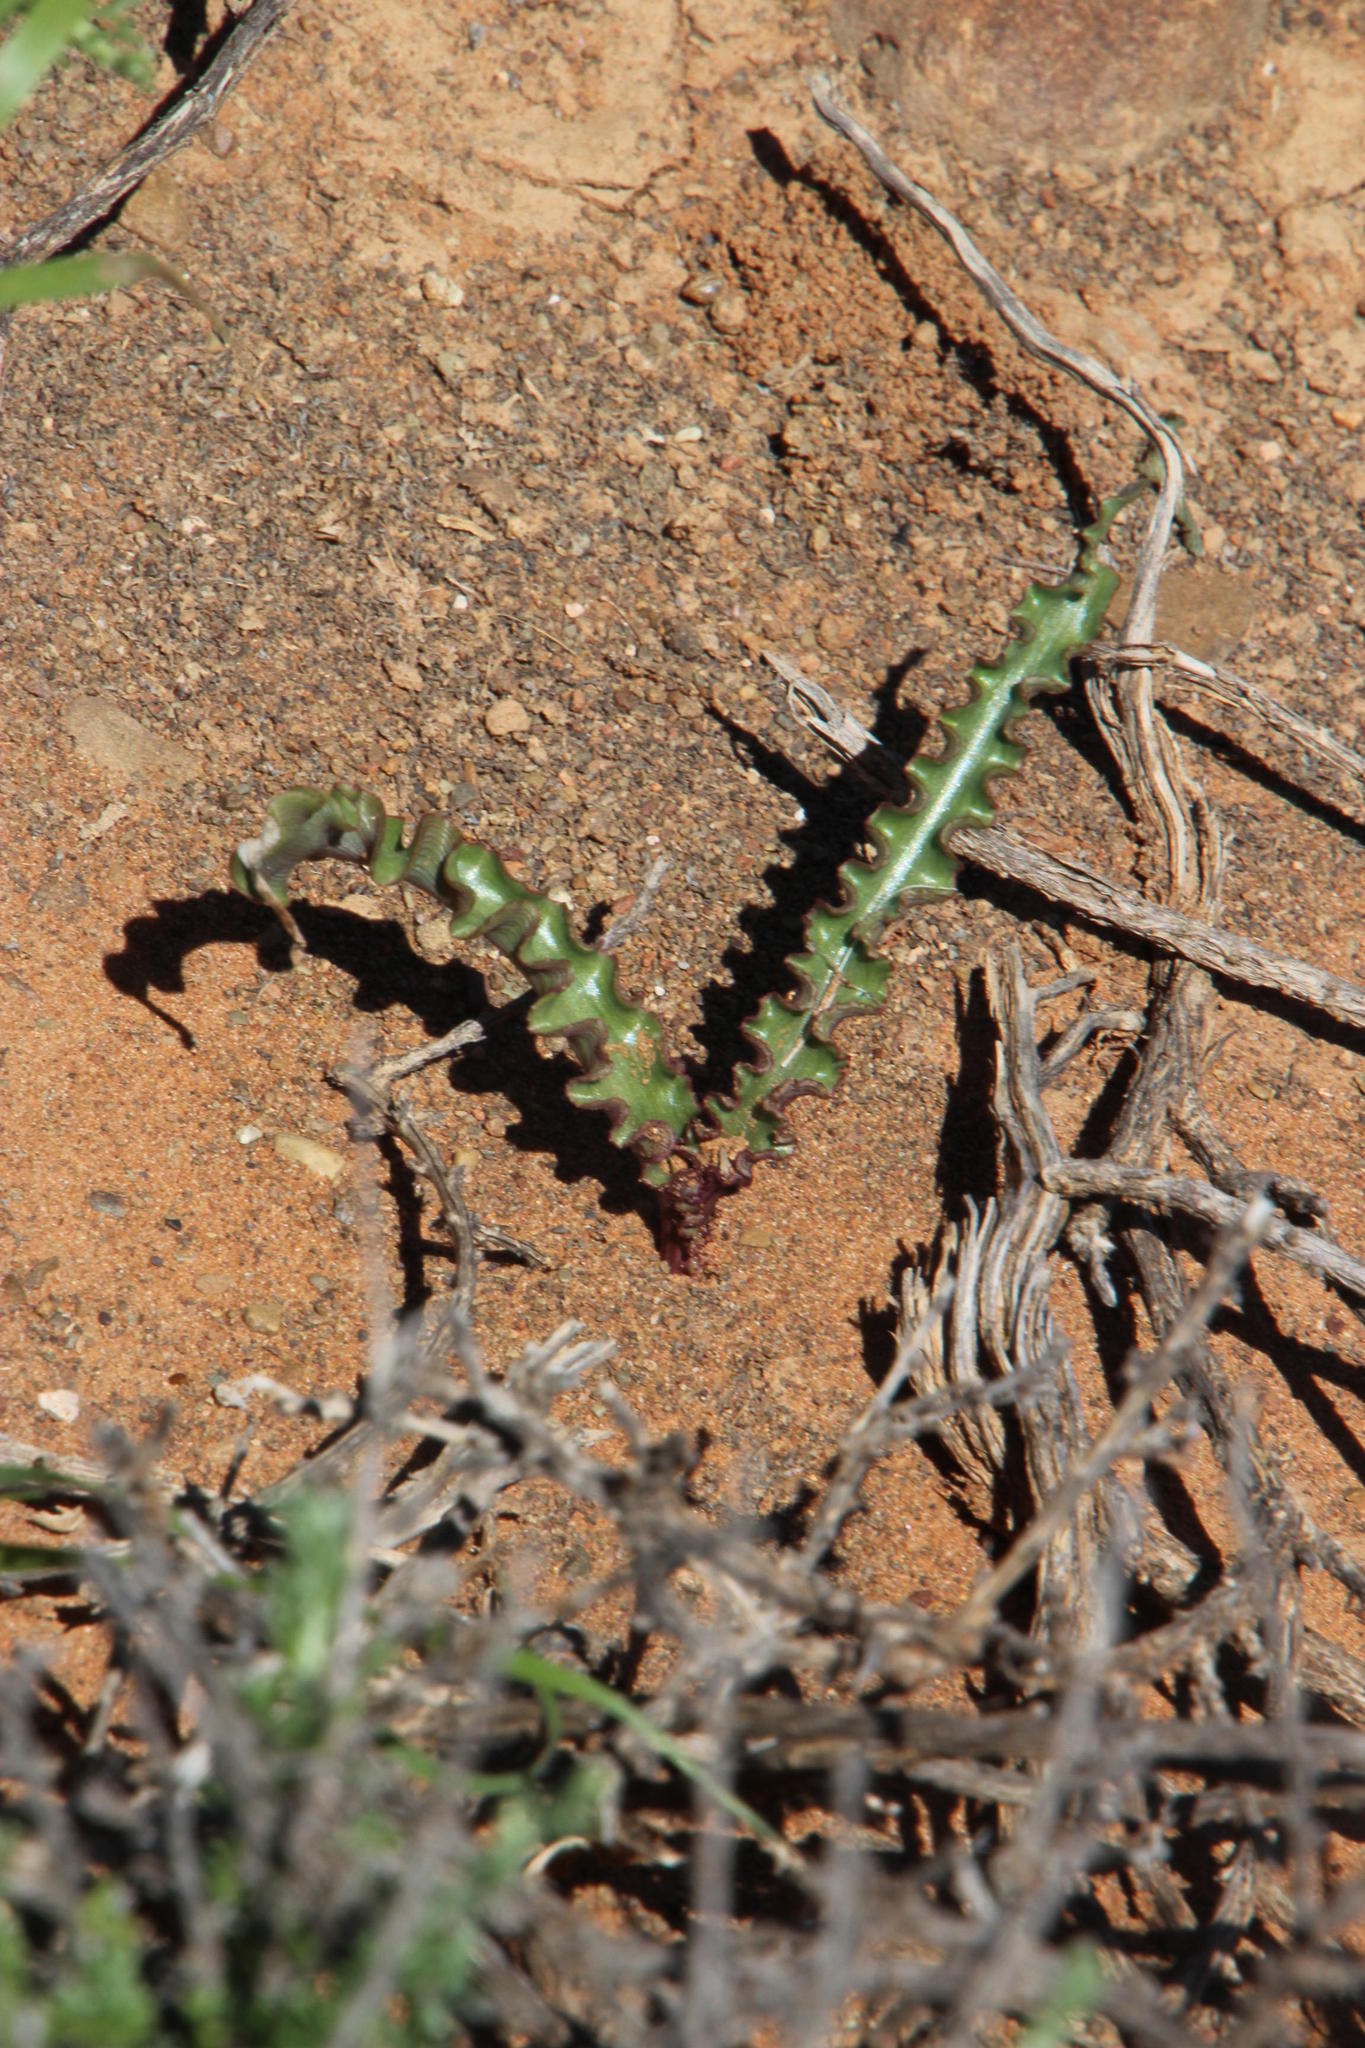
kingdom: Plantae
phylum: Tracheophyta
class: Liliopsida
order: Asparagales
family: Asparagaceae
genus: Albuca
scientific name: Albuca crispa
